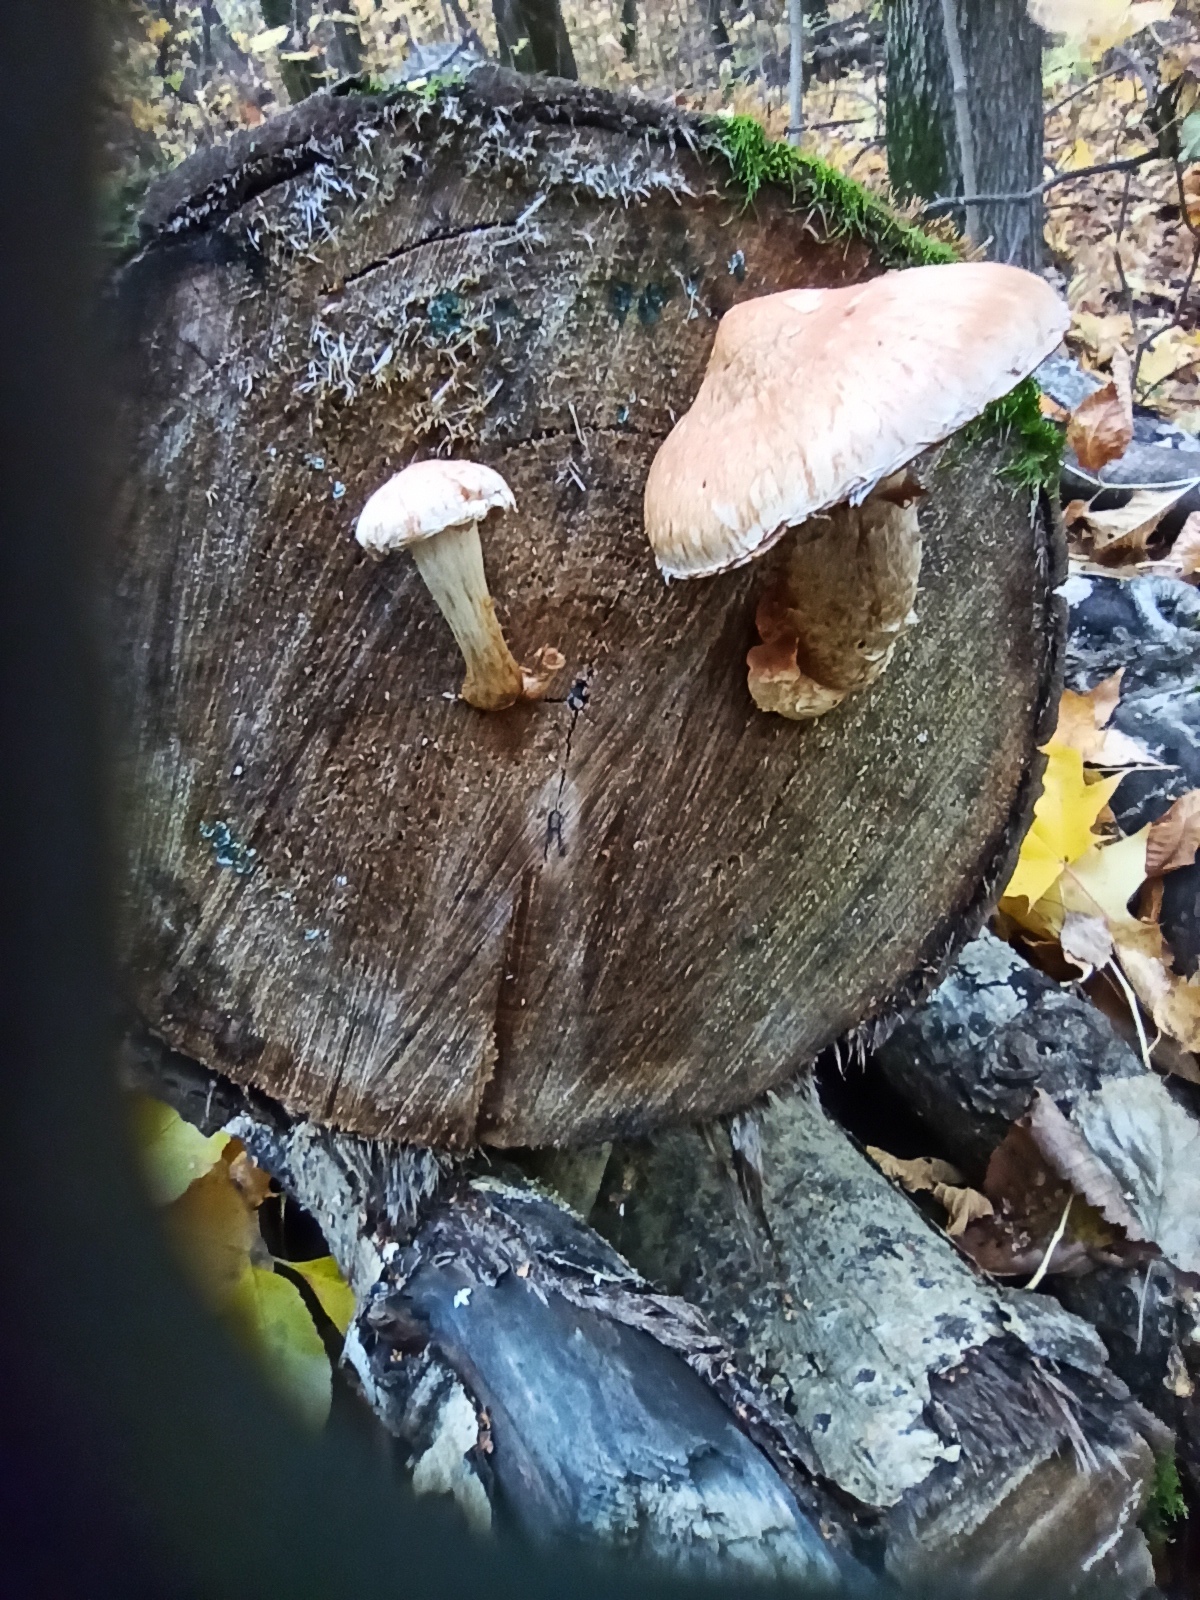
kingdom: Fungi
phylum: Basidiomycota
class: Agaricomycetes
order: Agaricales
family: Strophariaceae
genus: Pholiota
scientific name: Pholiota populnea
